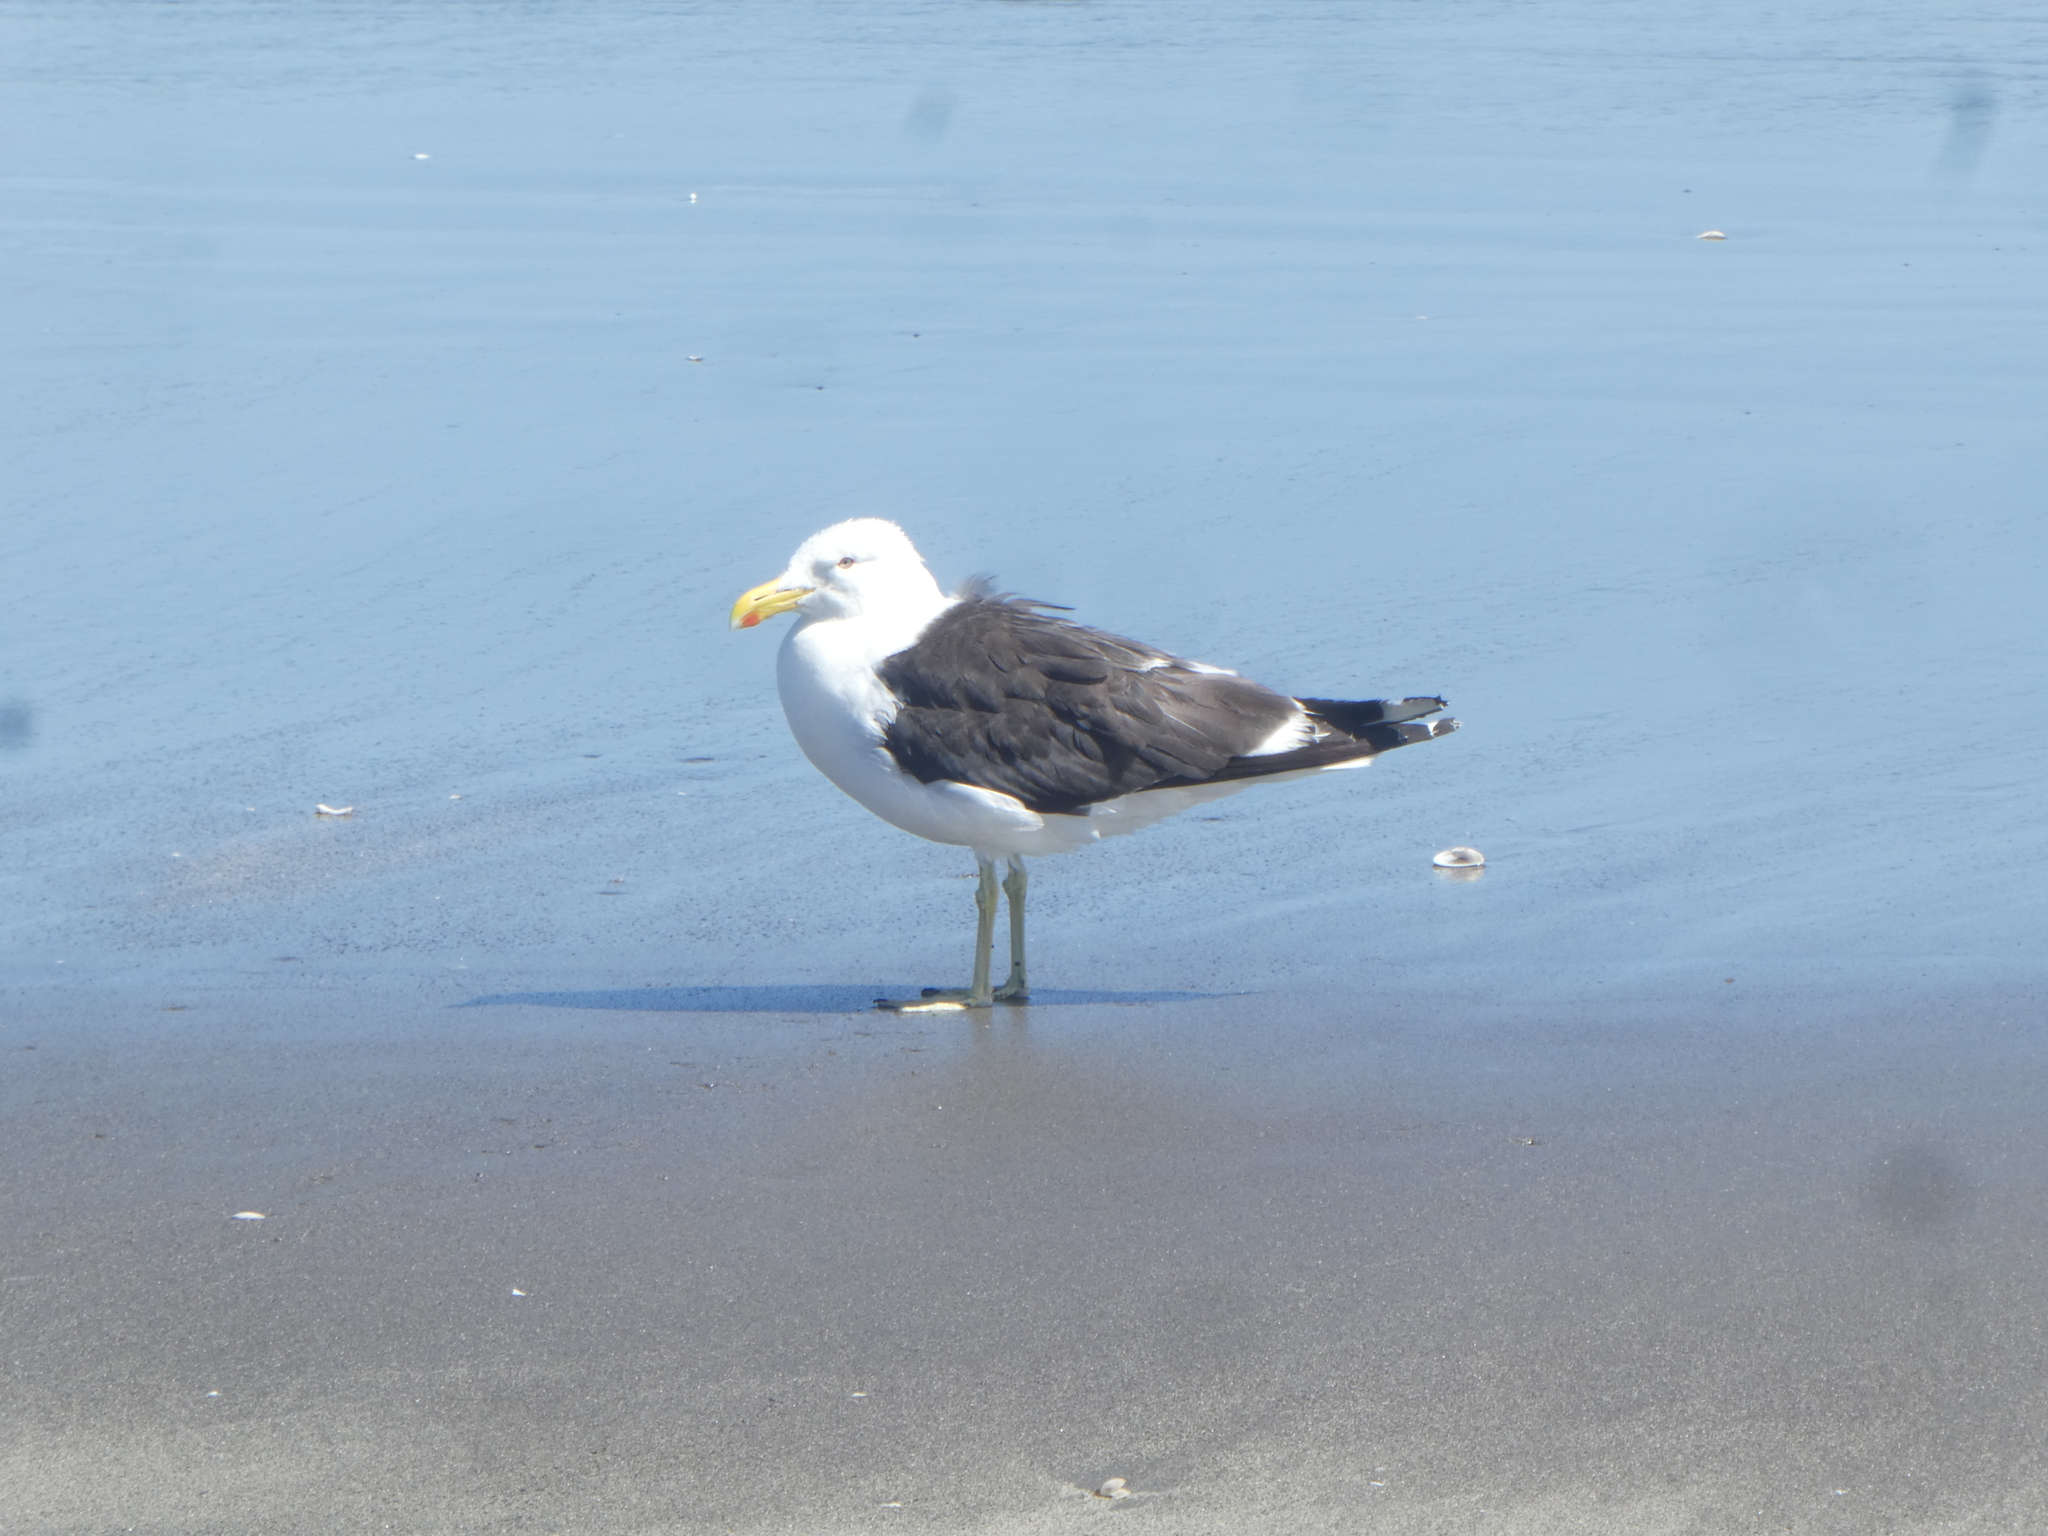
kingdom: Animalia
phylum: Chordata
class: Aves
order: Charadriiformes
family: Laridae
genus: Larus
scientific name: Larus dominicanus
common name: Kelp gull
